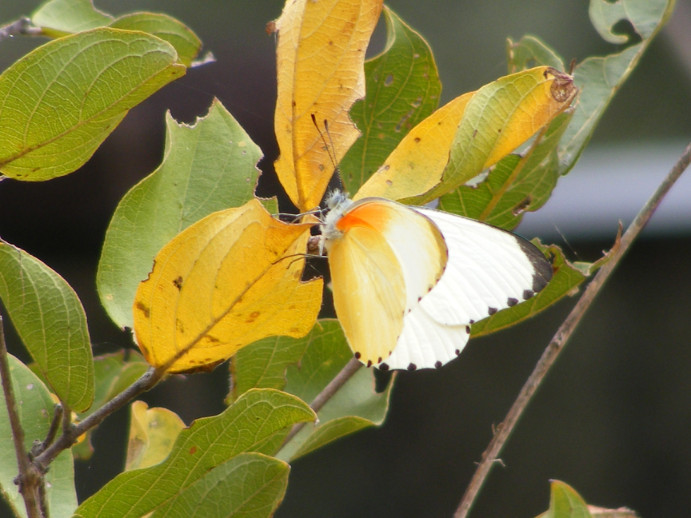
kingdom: Animalia
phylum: Arthropoda
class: Insecta
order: Lepidoptera
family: Pieridae
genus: Mylothris
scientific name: Mylothris agathina
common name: Eastern dotted border
